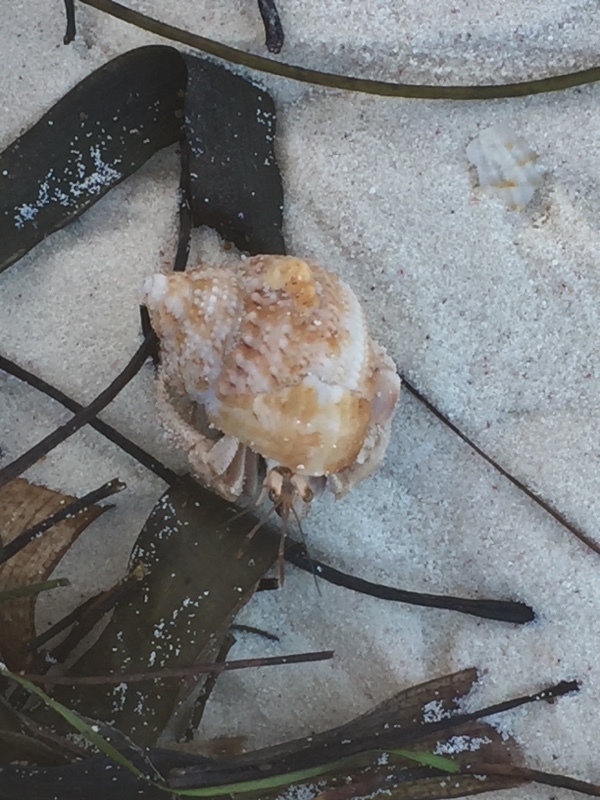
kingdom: Animalia
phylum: Arthropoda
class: Malacostraca
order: Decapoda
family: Coenobitidae
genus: Coenobita
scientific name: Coenobita clypeatus
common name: Caribbean hermit crab
